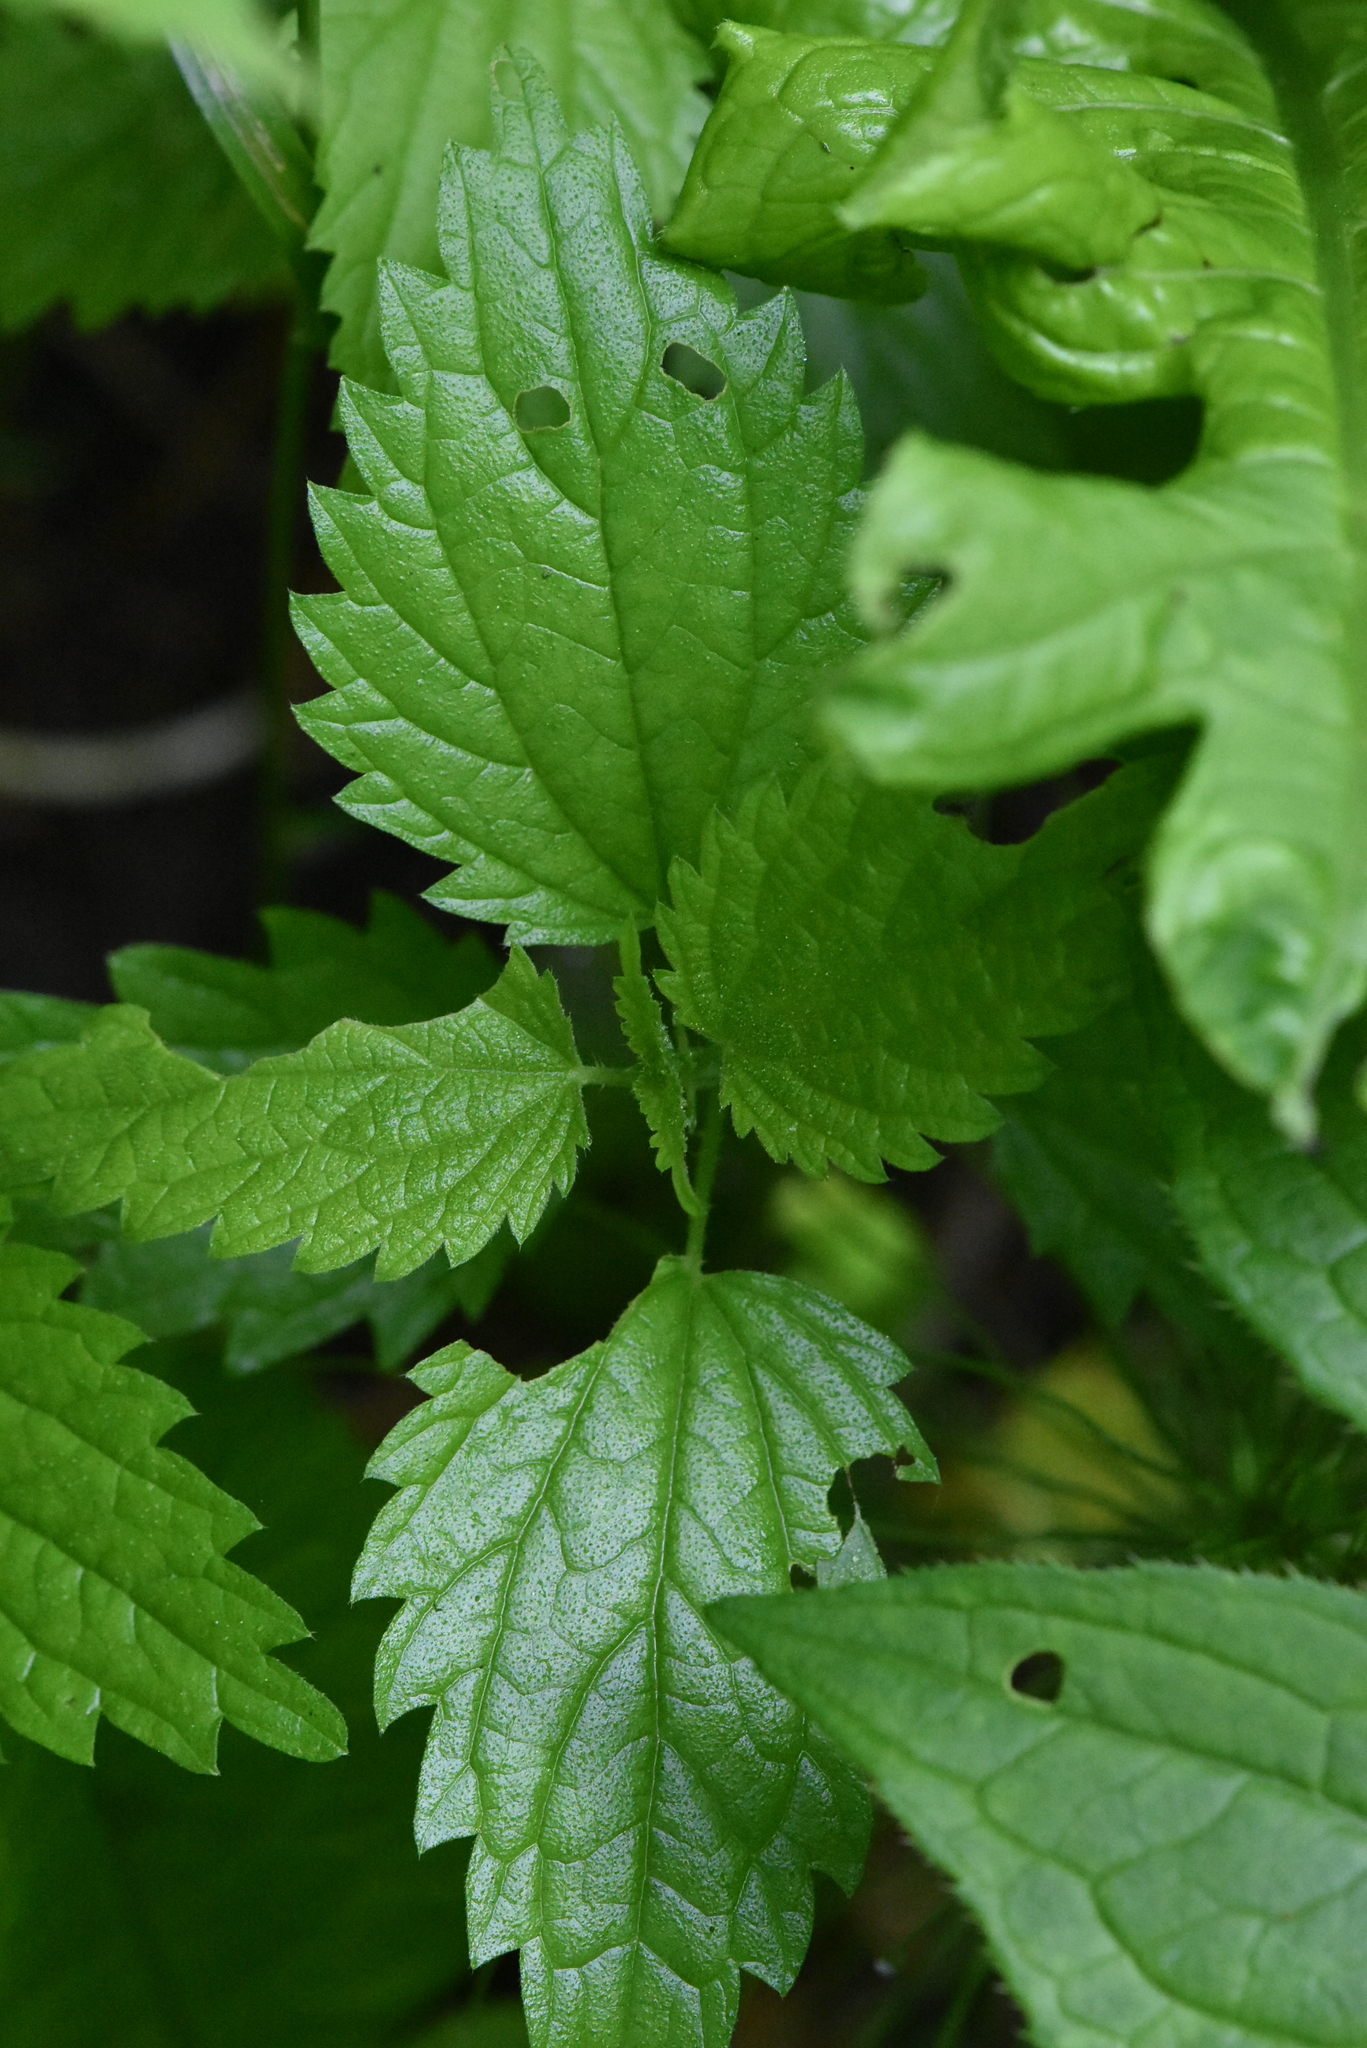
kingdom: Plantae
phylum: Tracheophyta
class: Magnoliopsida
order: Rosales
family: Urticaceae
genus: Urtica
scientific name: Urtica dioica
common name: Common nettle
